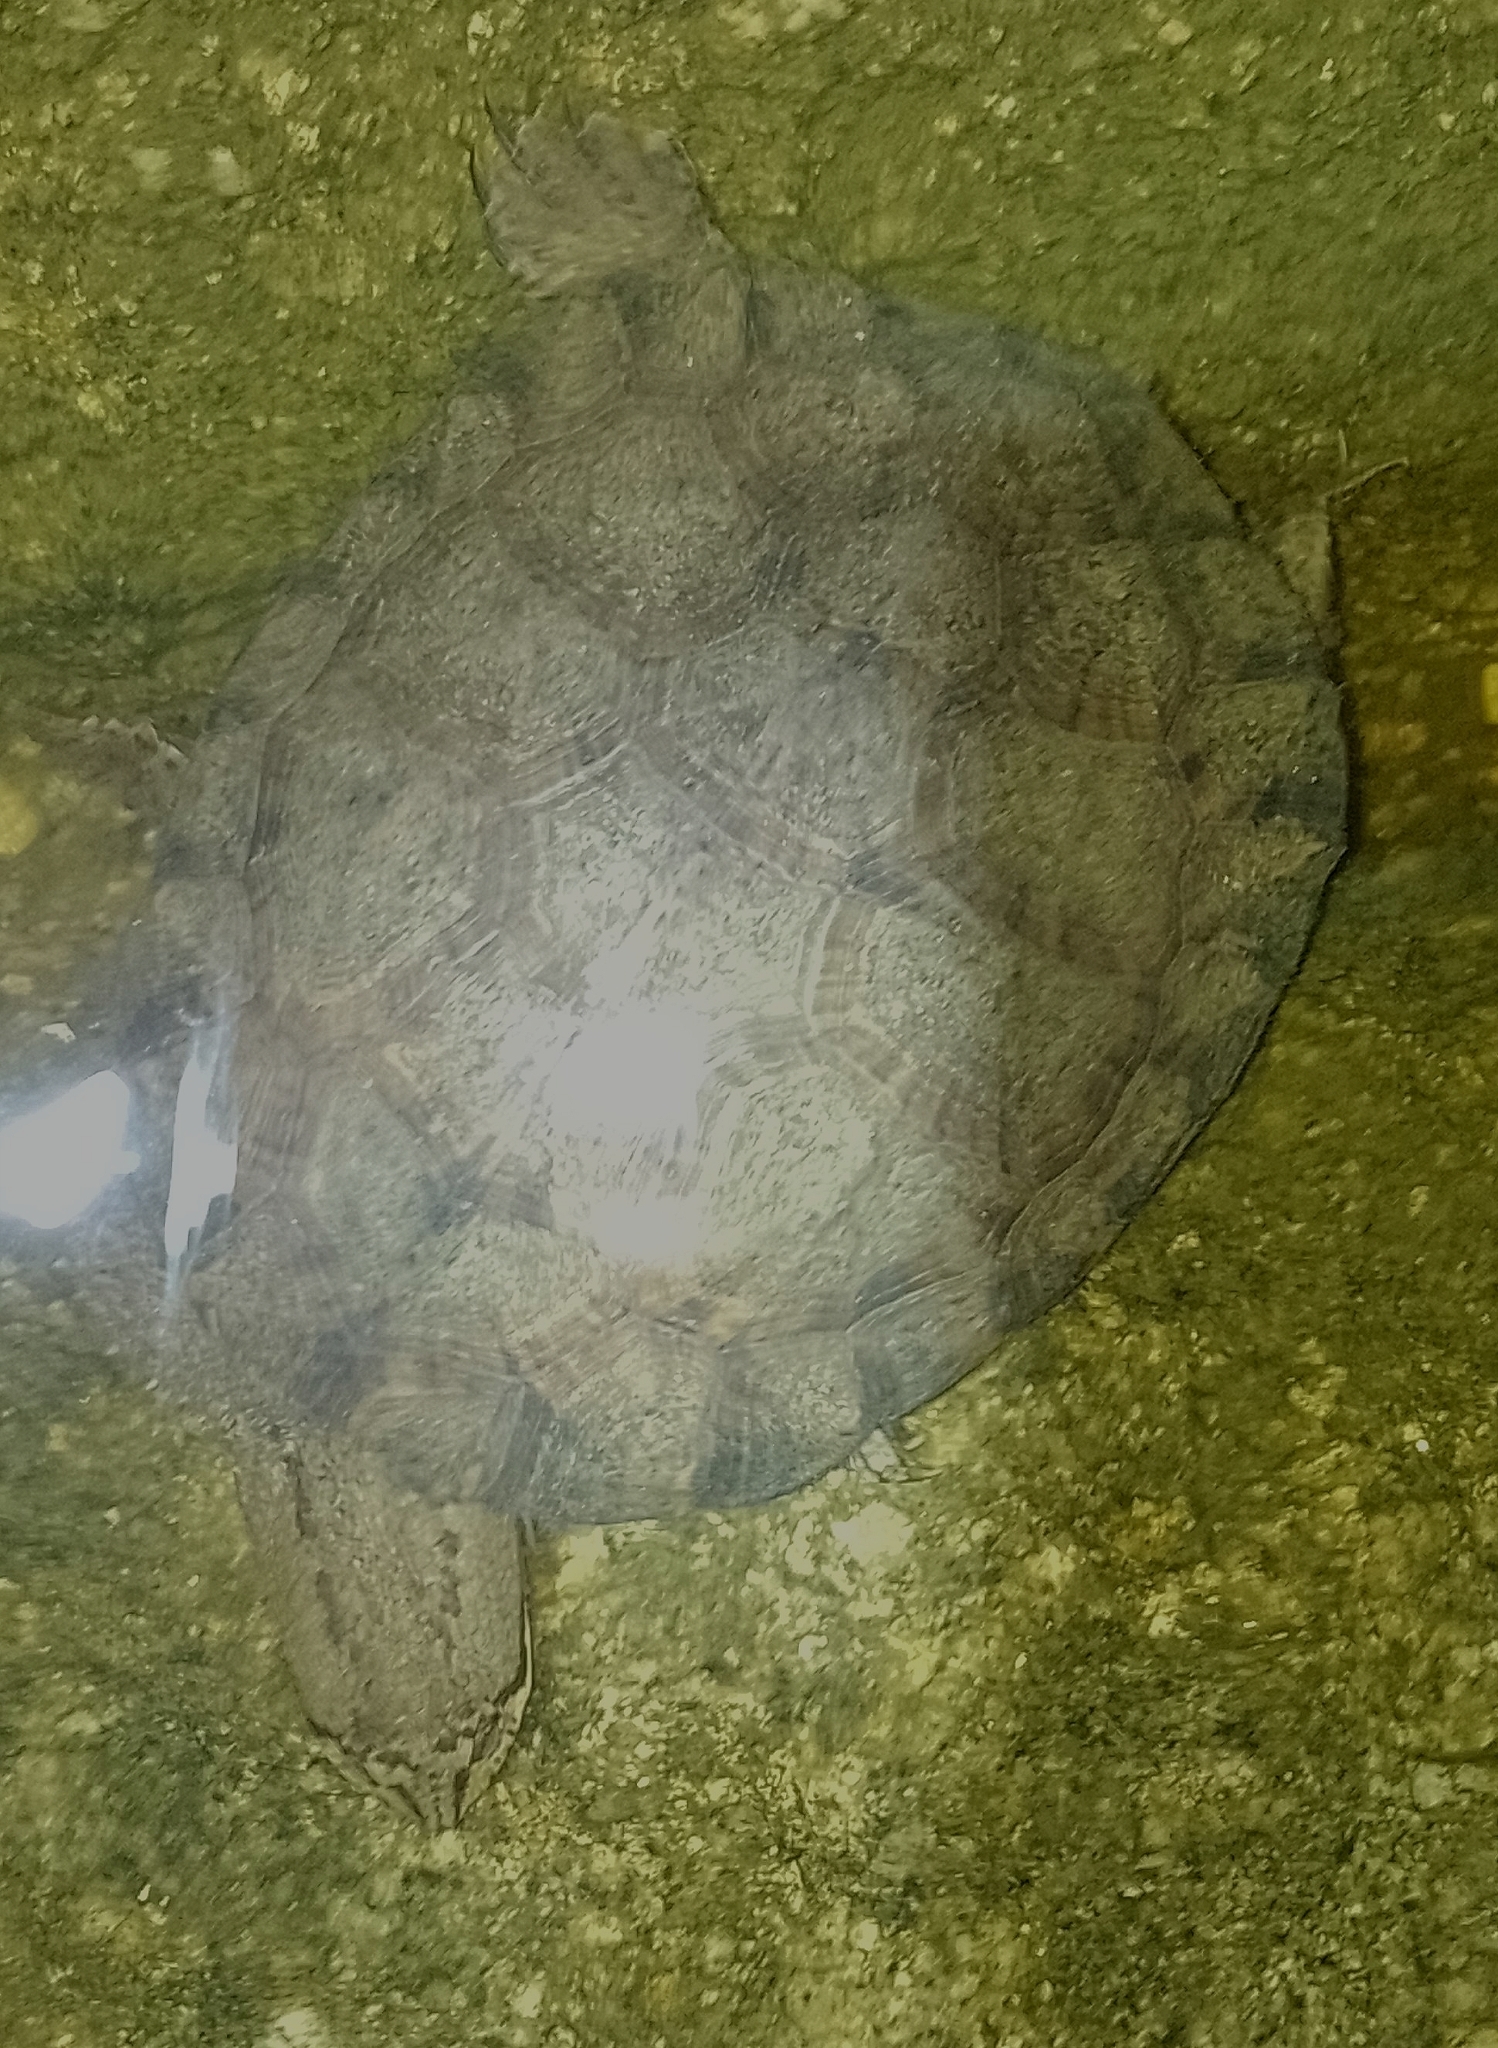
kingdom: Animalia
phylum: Chordata
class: Testudines
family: Chelidae
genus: Hydromedusa
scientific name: Hydromedusa tectifera
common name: Argentine snake-necked turtle
